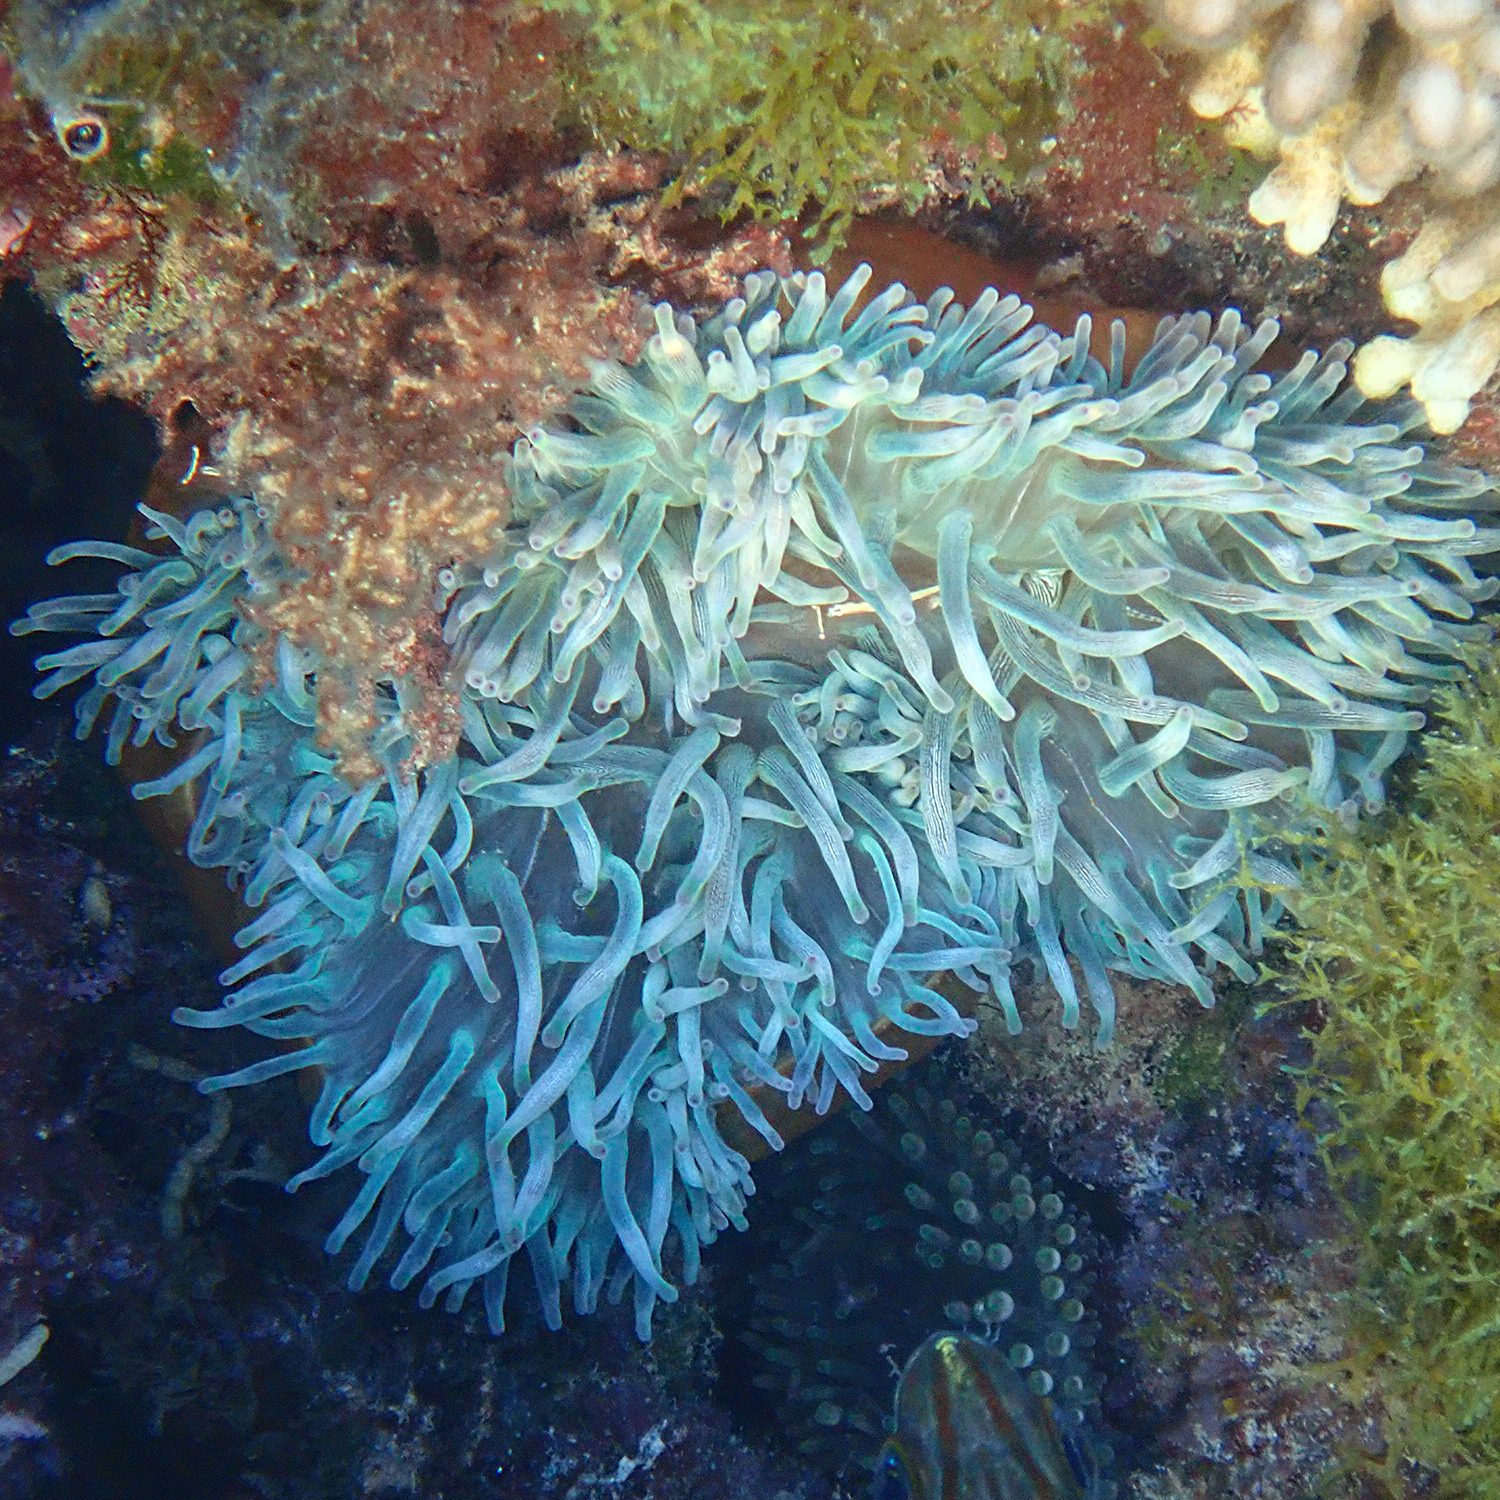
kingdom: Animalia
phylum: Cnidaria
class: Anthozoa
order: Actiniaria
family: Actiniidae
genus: Entacmaea
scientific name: Entacmaea quadricolor
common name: Bulb tentacle sea anemone
